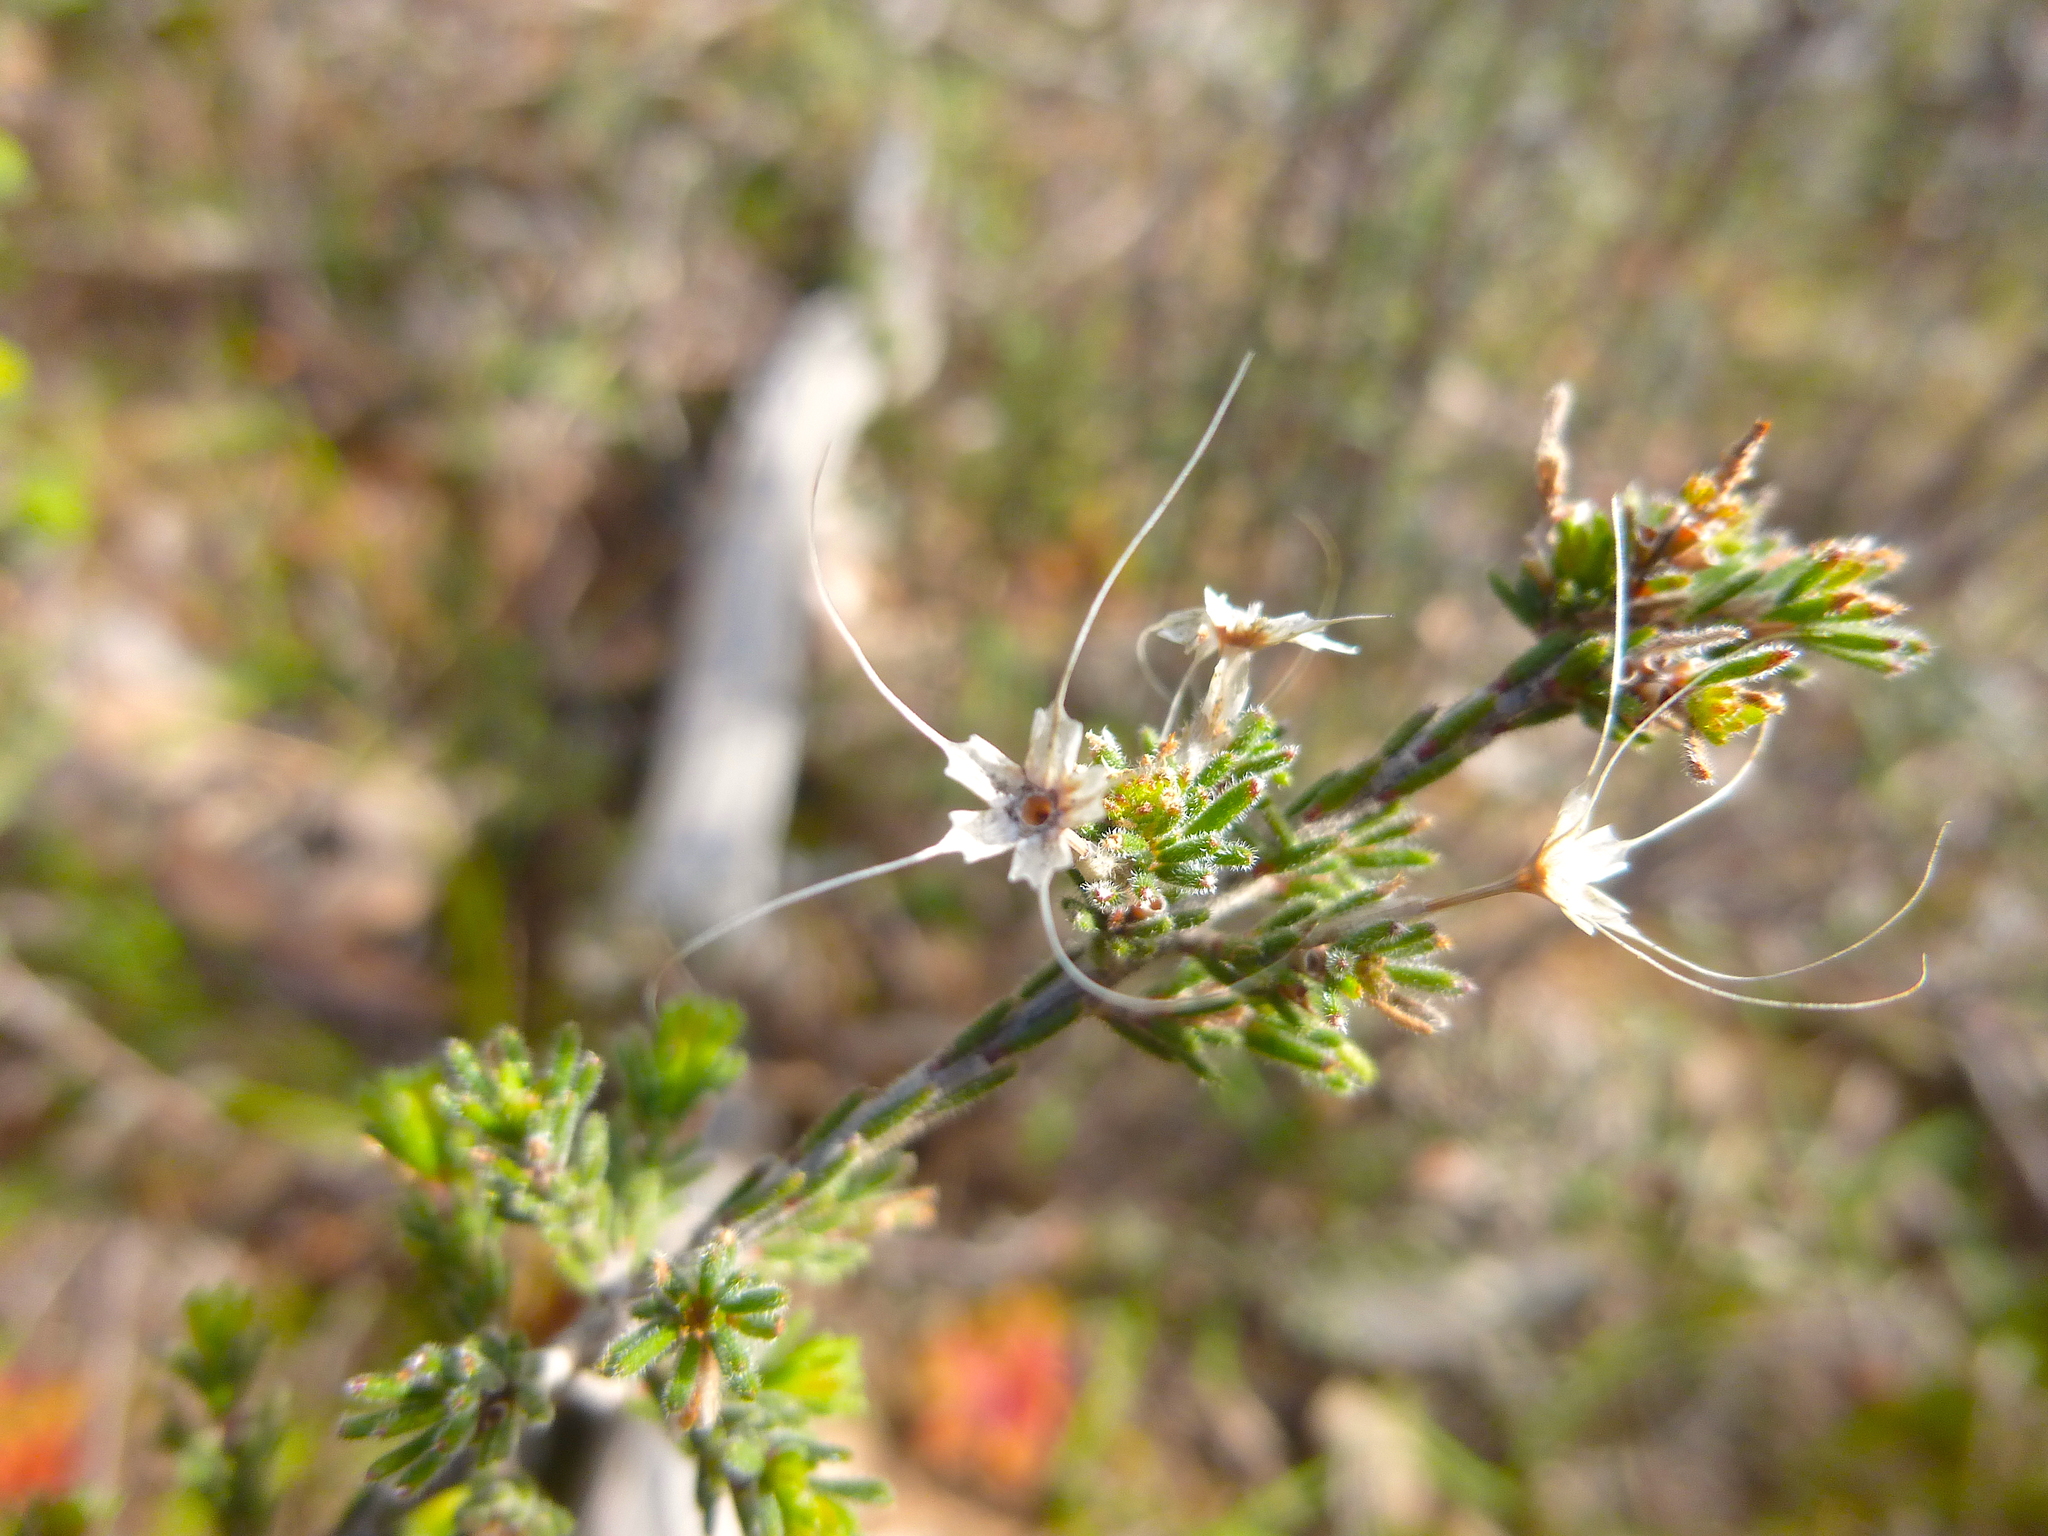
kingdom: Plantae
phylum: Tracheophyta
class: Magnoliopsida
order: Myrtales
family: Myrtaceae
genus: Calytrix
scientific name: Calytrix tetragona
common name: Common fringe myrtle
